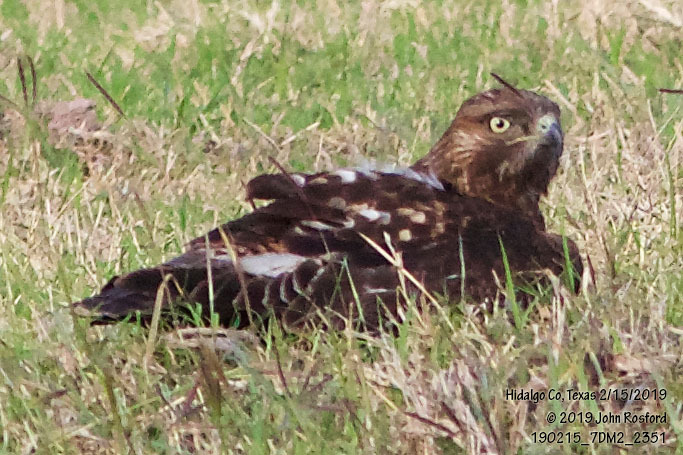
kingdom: Animalia
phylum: Chordata
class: Aves
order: Accipitriformes
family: Accipitridae
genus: Buteo
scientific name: Buteo jamaicensis
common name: Red-tailed hawk
